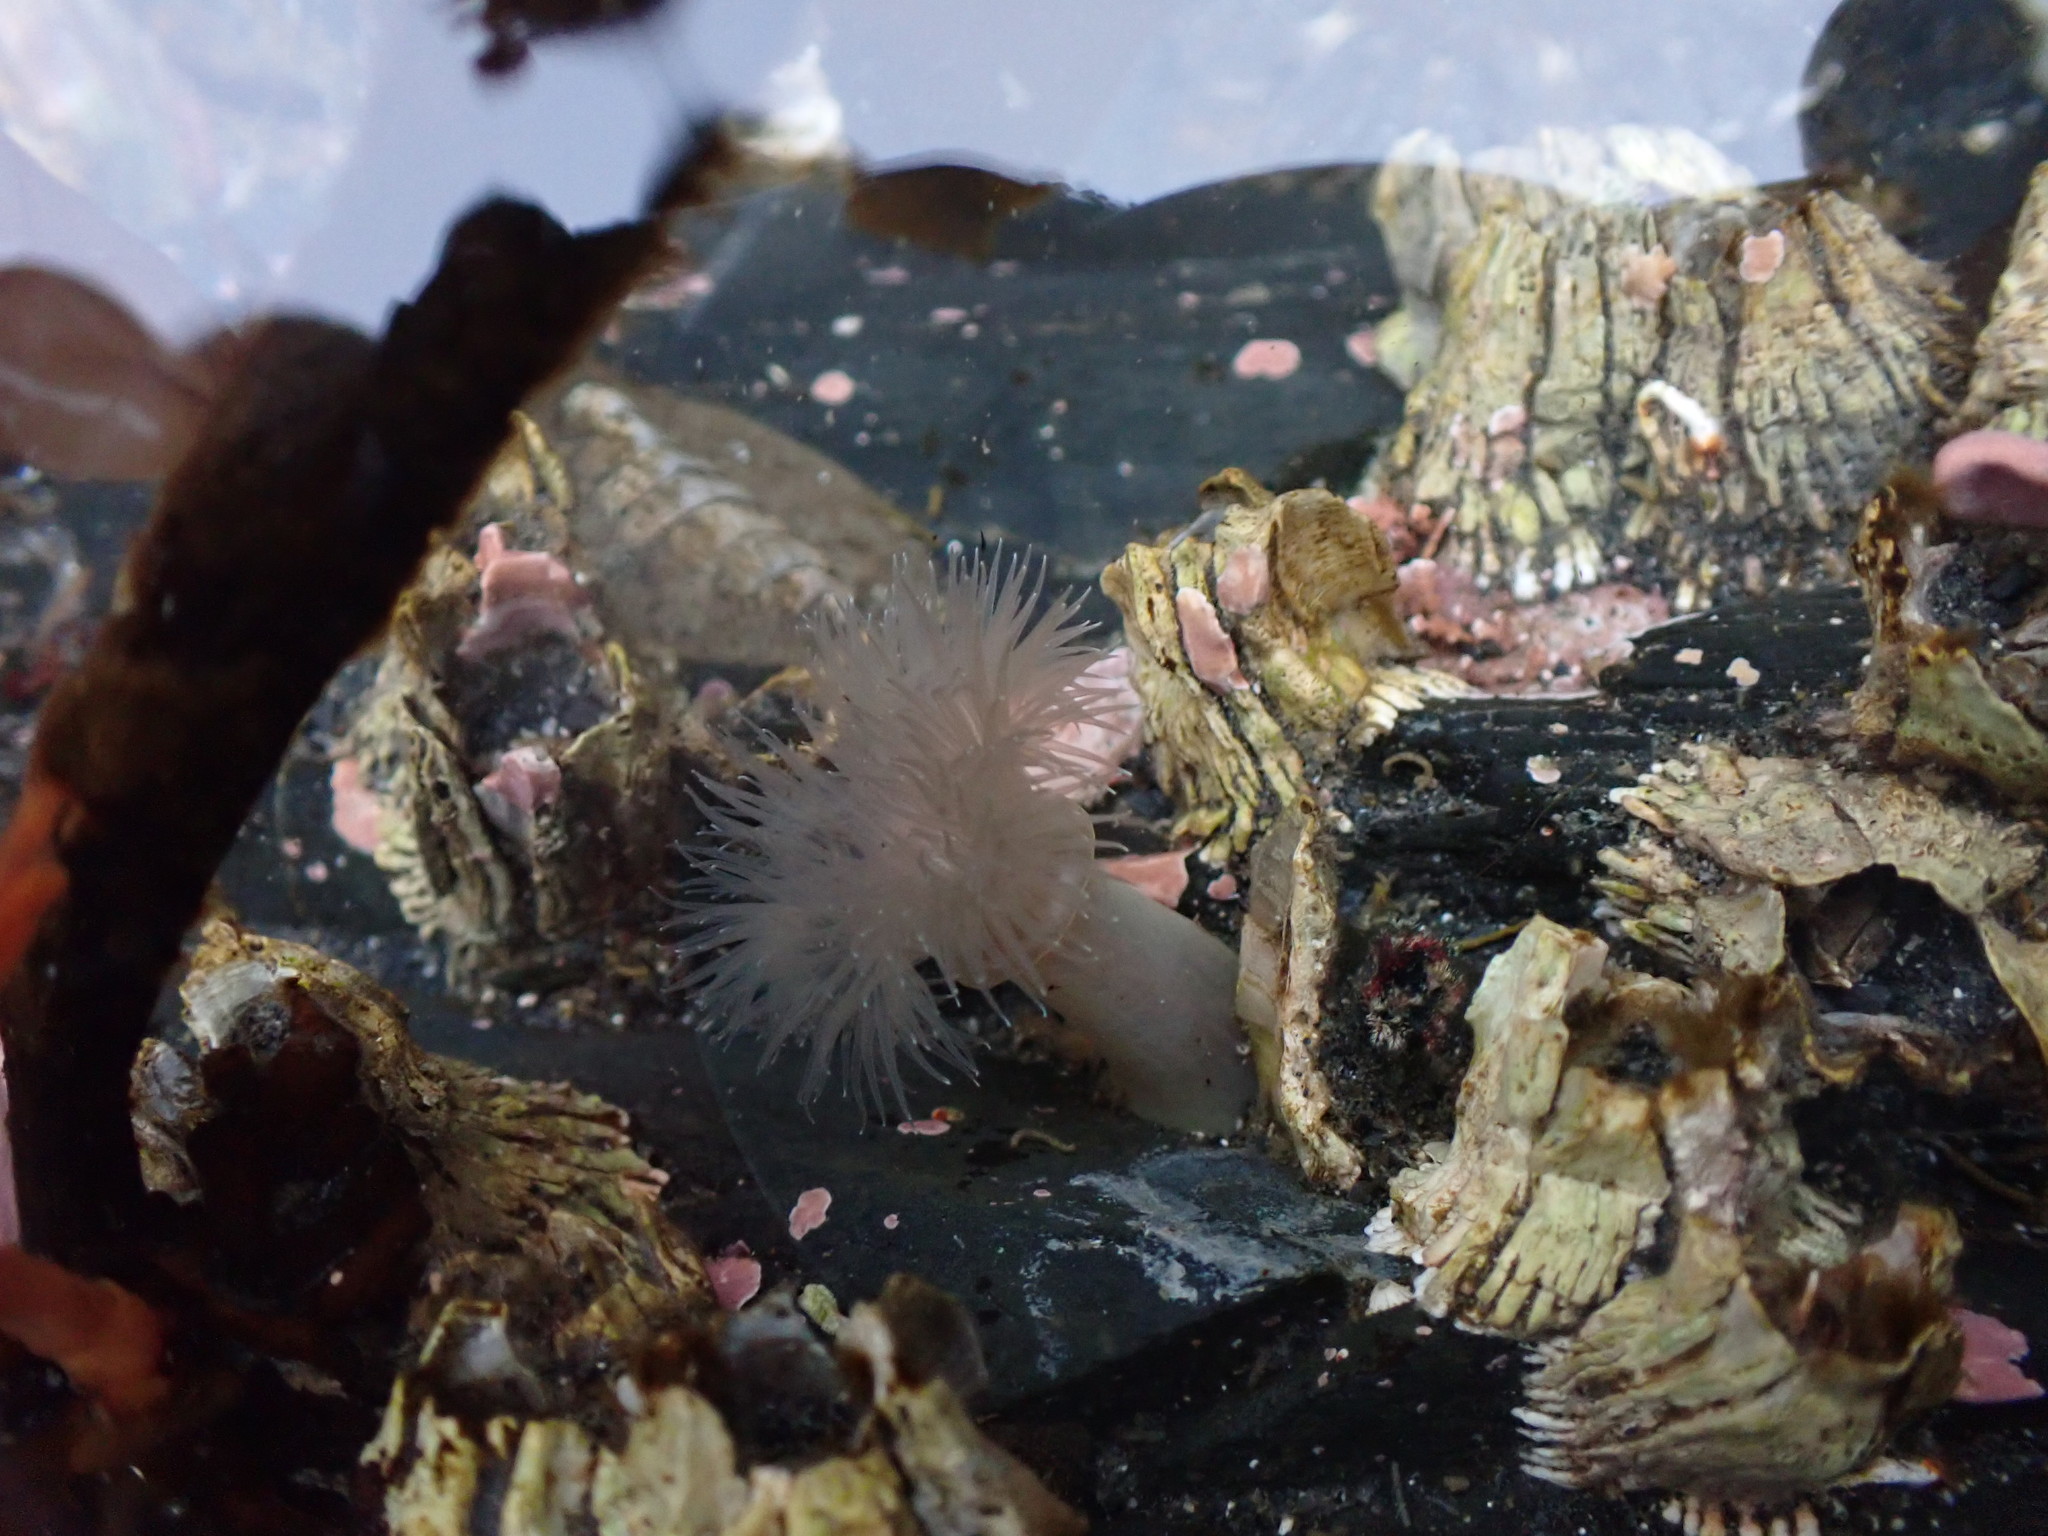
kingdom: Animalia
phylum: Cnidaria
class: Anthozoa
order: Actiniaria
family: Metridiidae
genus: Metridium
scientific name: Metridium senile
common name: Clonal plumose anemone
